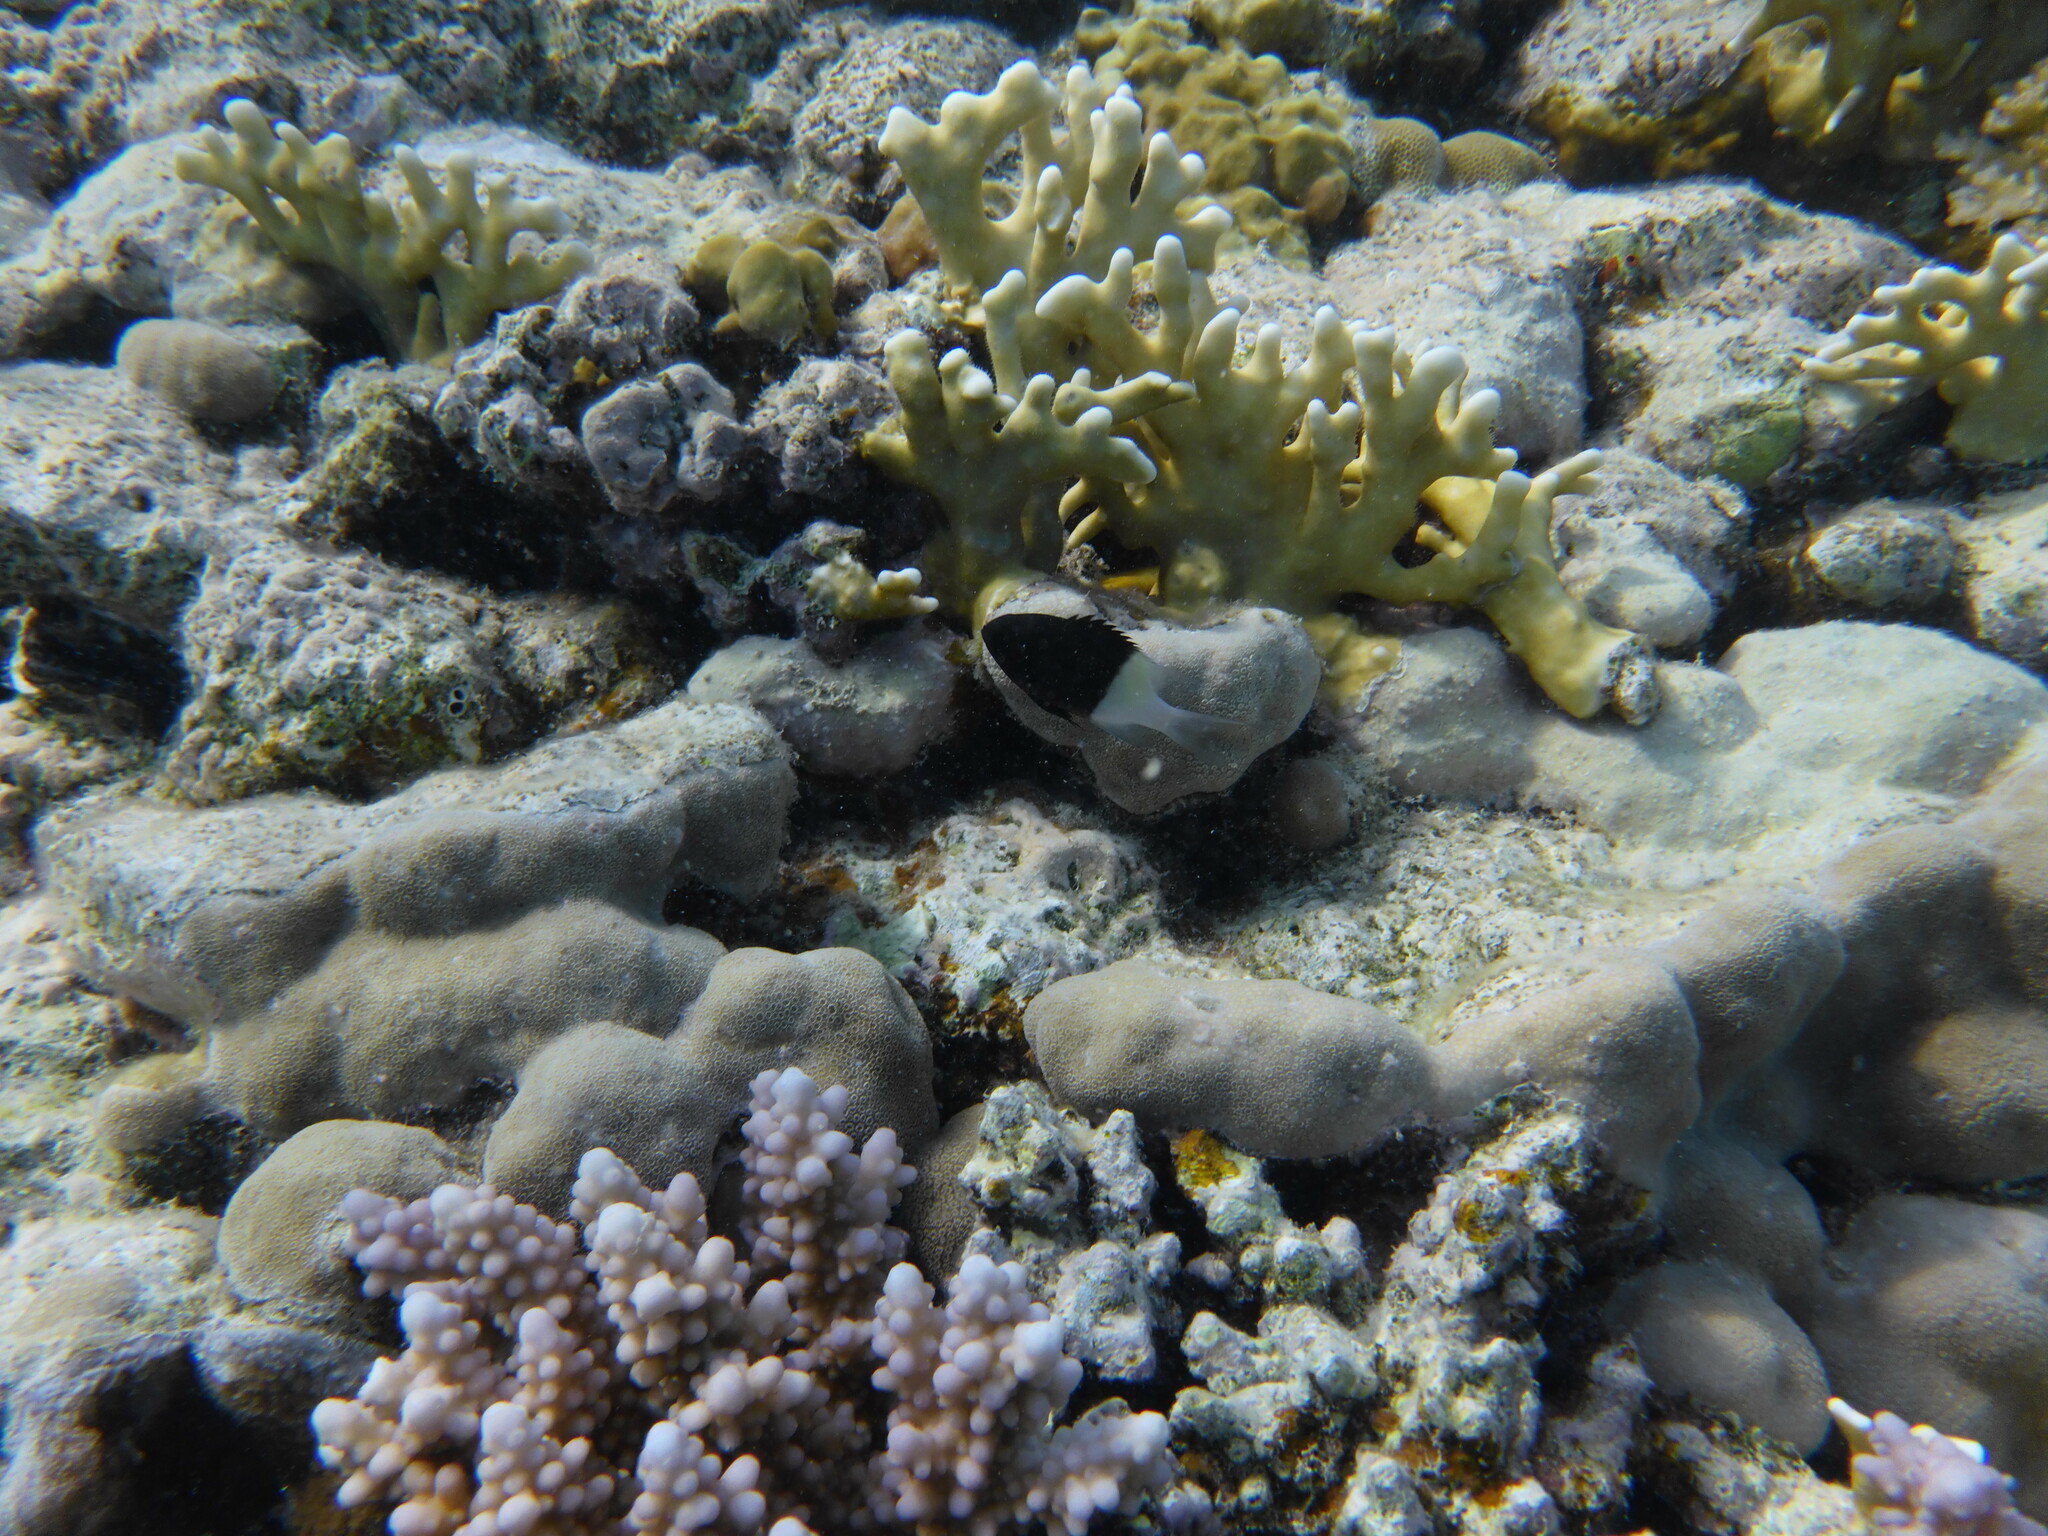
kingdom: Animalia
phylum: Chordata
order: Perciformes
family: Pomacentridae
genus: Chromis
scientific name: Chromis dimidiata
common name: Half-and-half chromis
